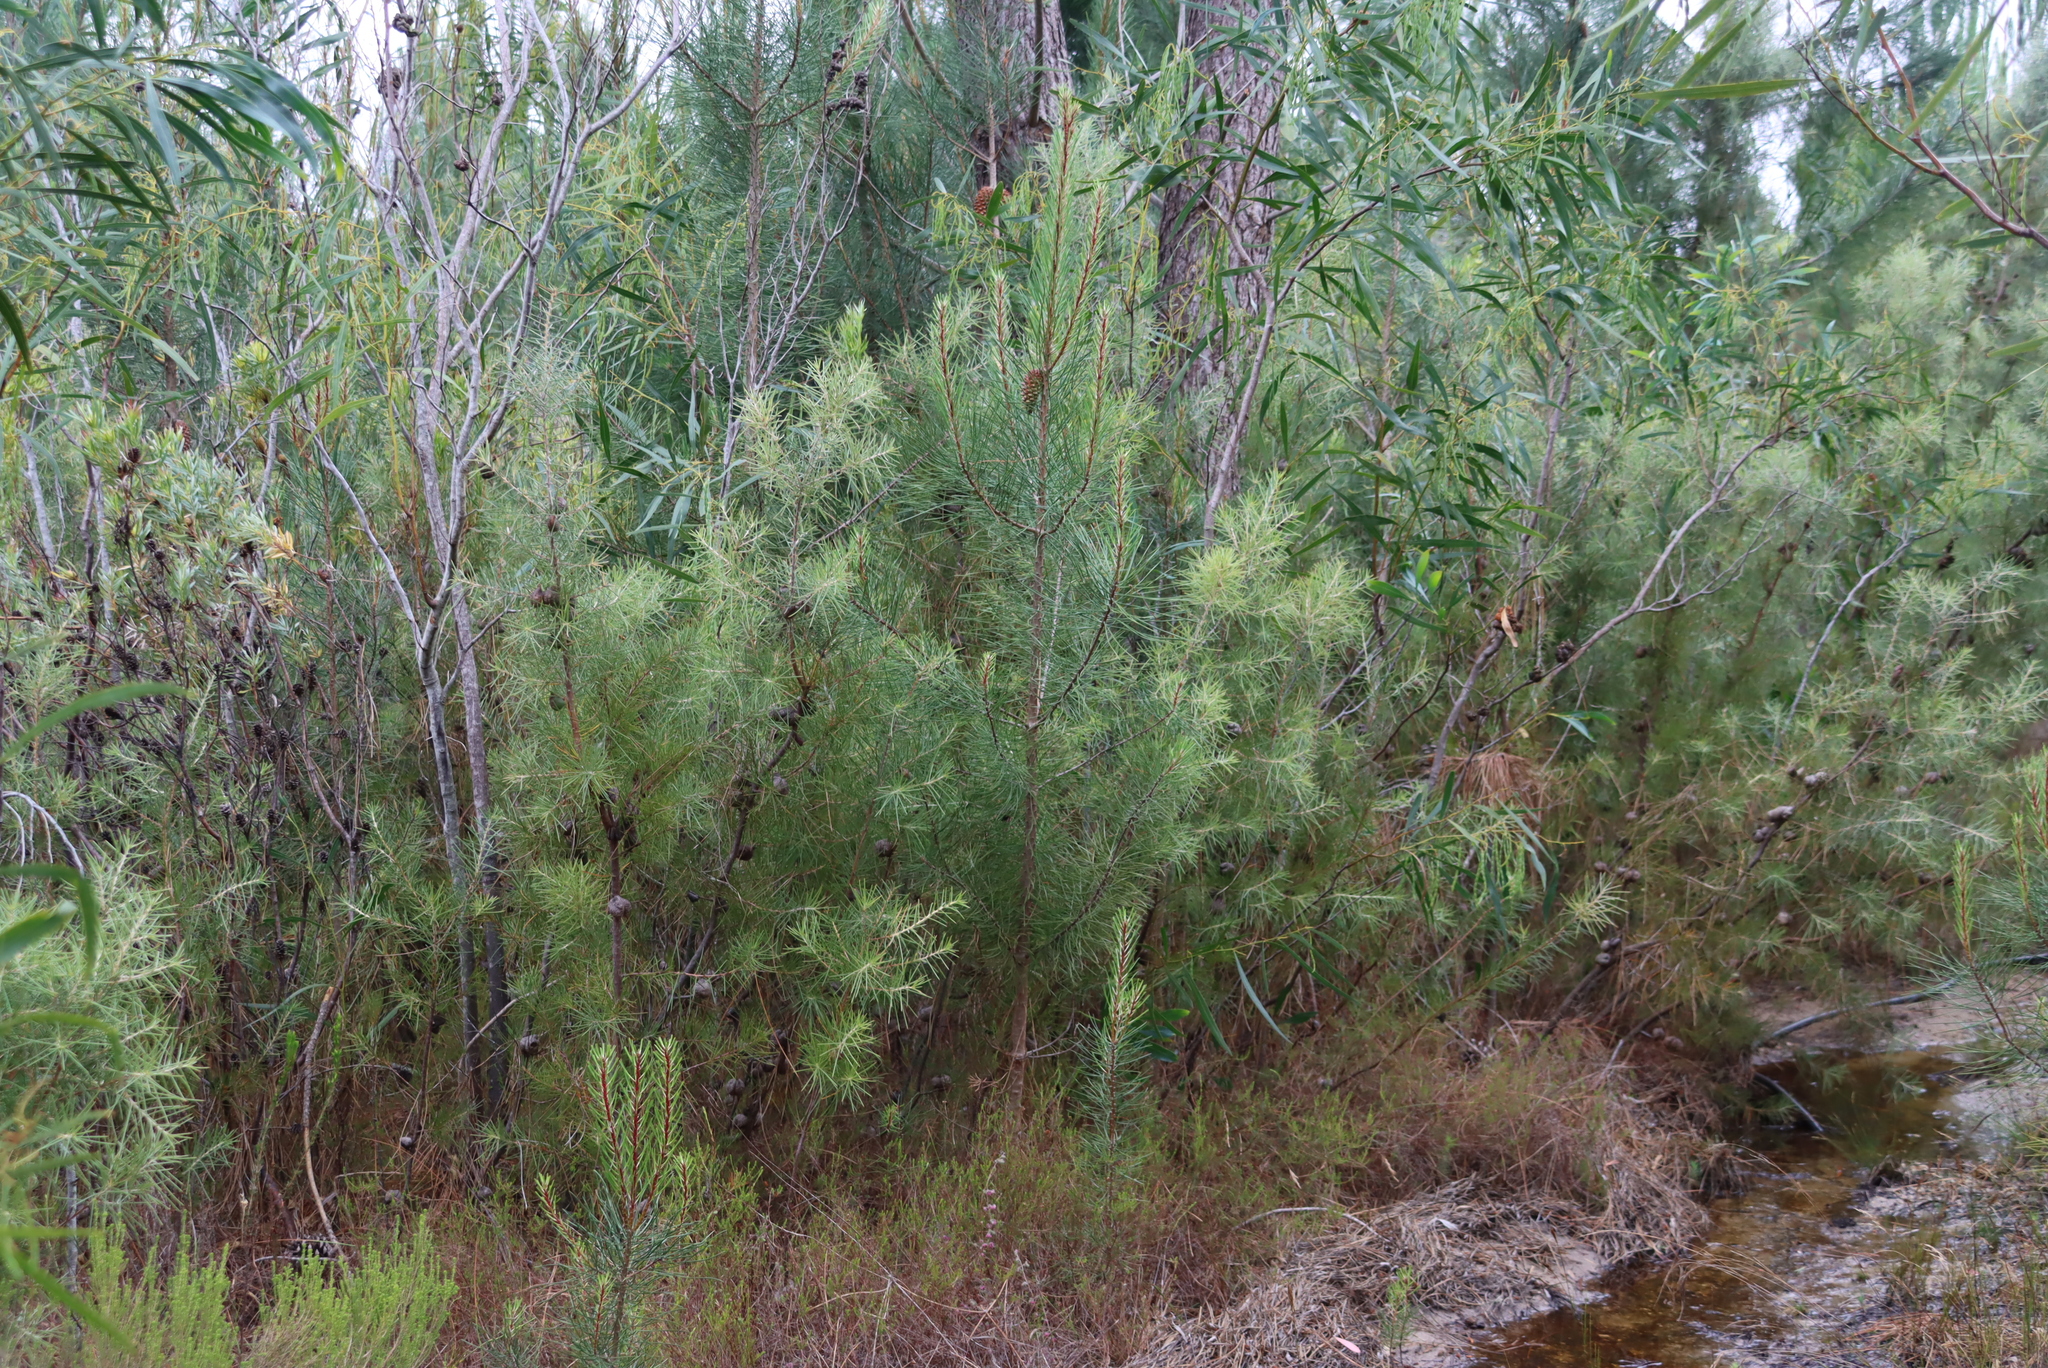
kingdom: Plantae
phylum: Tracheophyta
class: Magnoliopsida
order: Proteales
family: Proteaceae
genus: Hakea
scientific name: Hakea gibbosa
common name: Rock hakea
